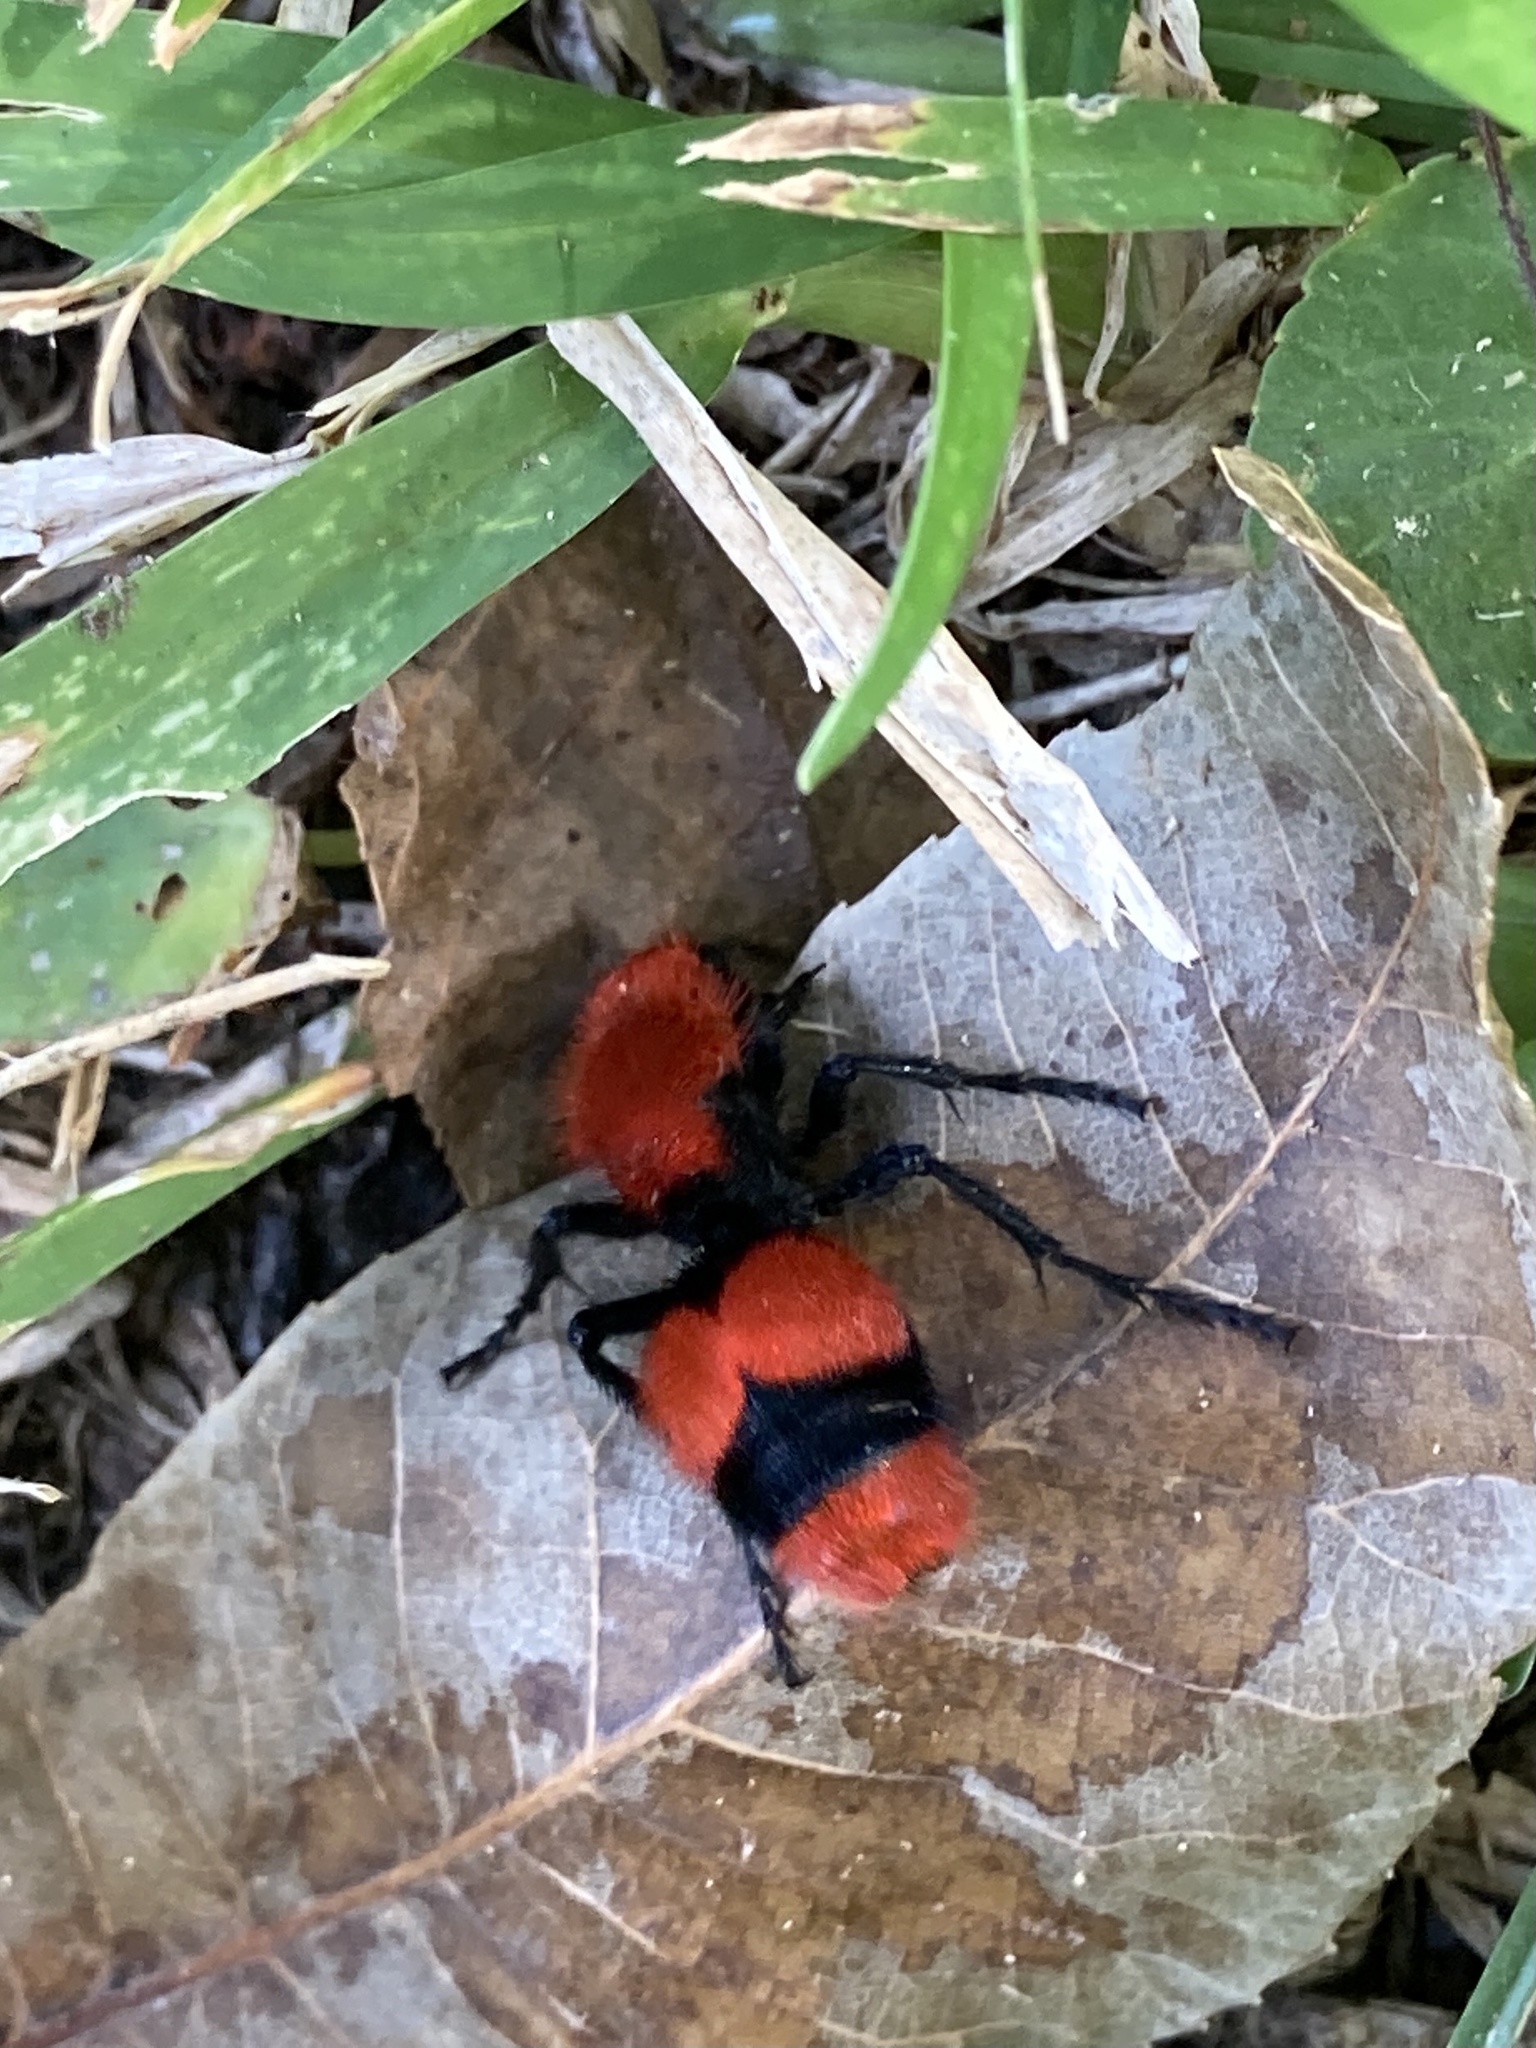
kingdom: Animalia
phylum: Arthropoda
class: Insecta
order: Hymenoptera
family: Mutillidae
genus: Dasymutilla
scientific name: Dasymutilla occidentalis
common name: Common eastern velvet ant
